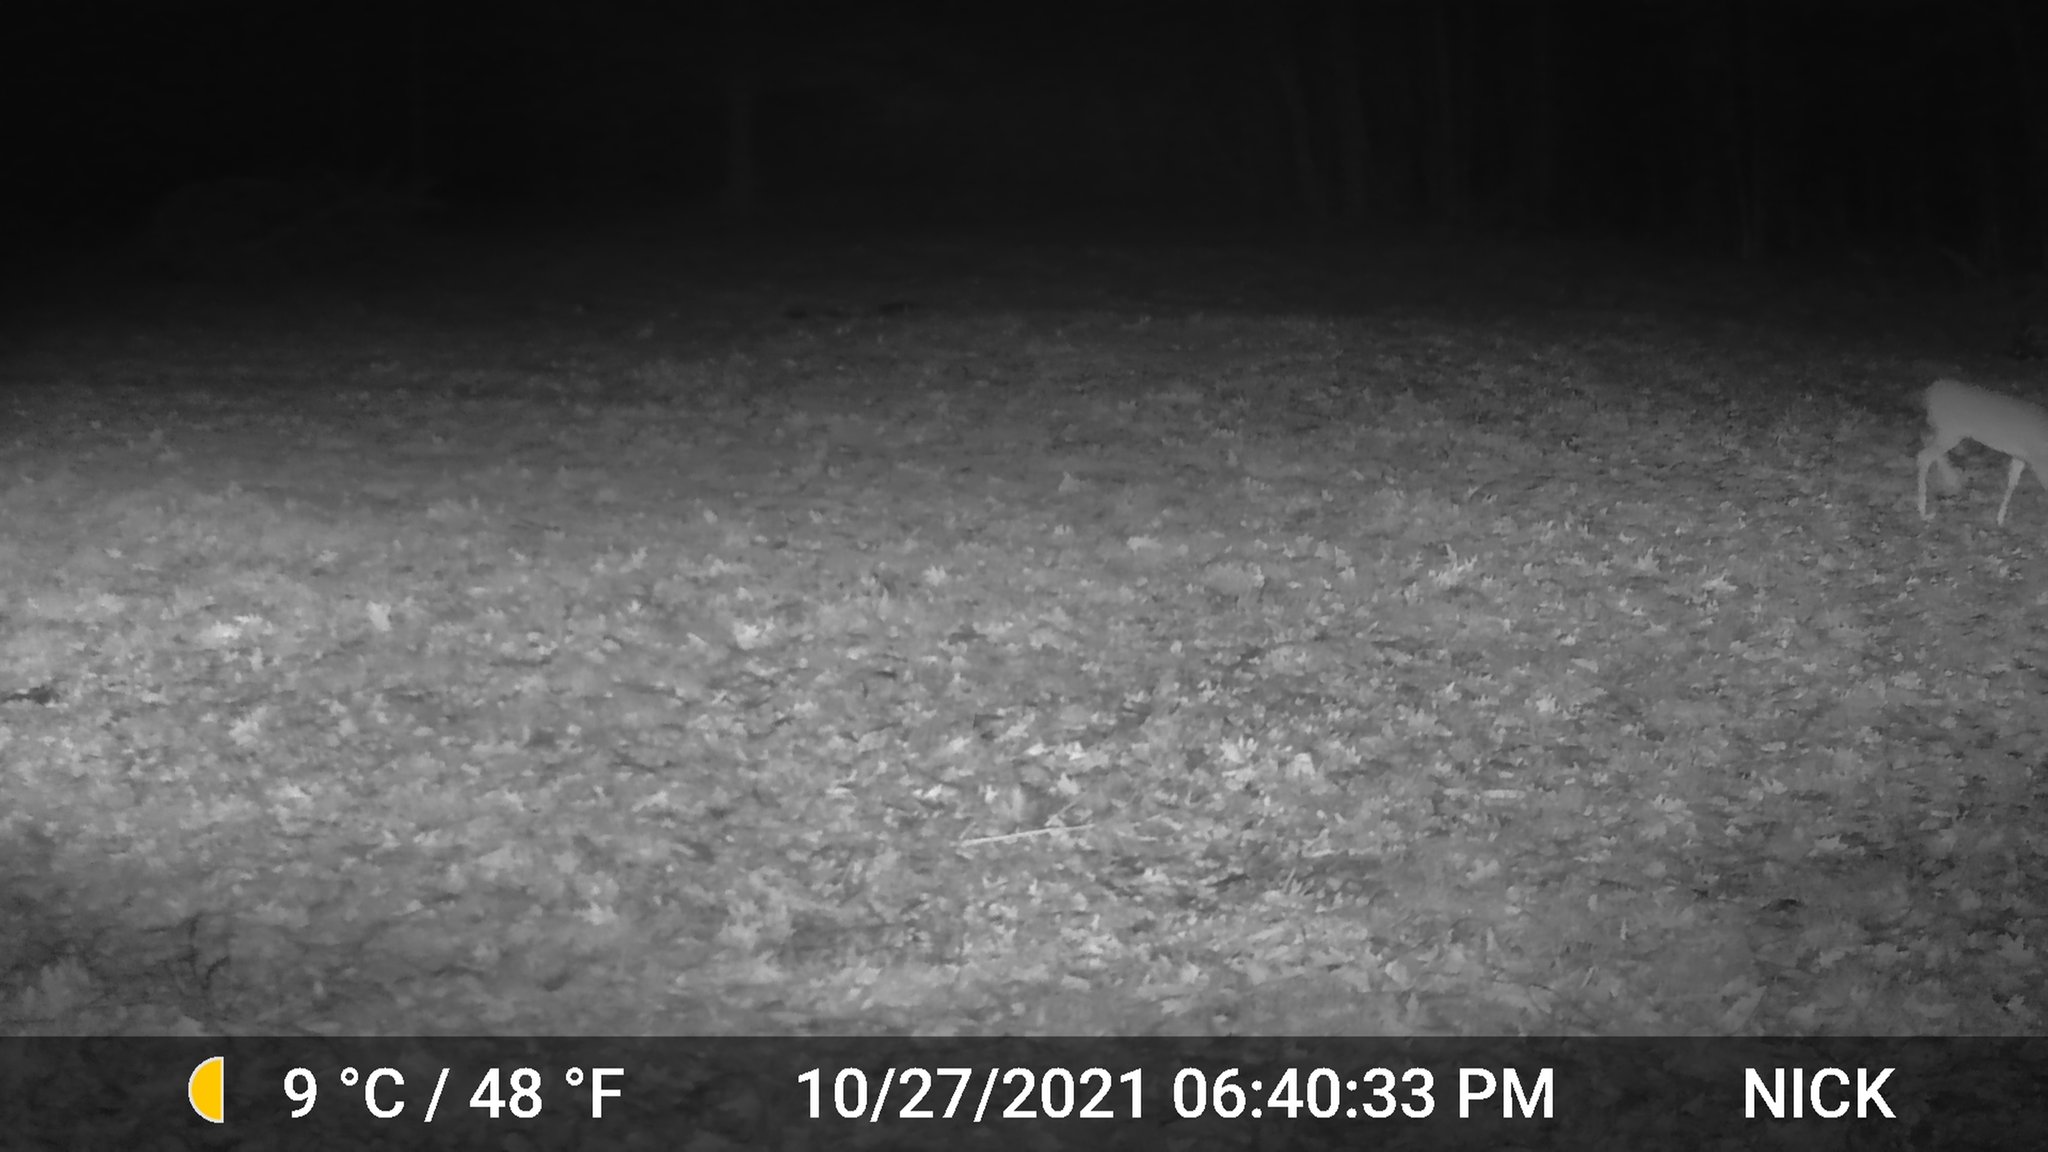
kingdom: Animalia
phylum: Chordata
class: Mammalia
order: Artiodactyla
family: Cervidae
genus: Odocoileus
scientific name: Odocoileus virginianus
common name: White-tailed deer
